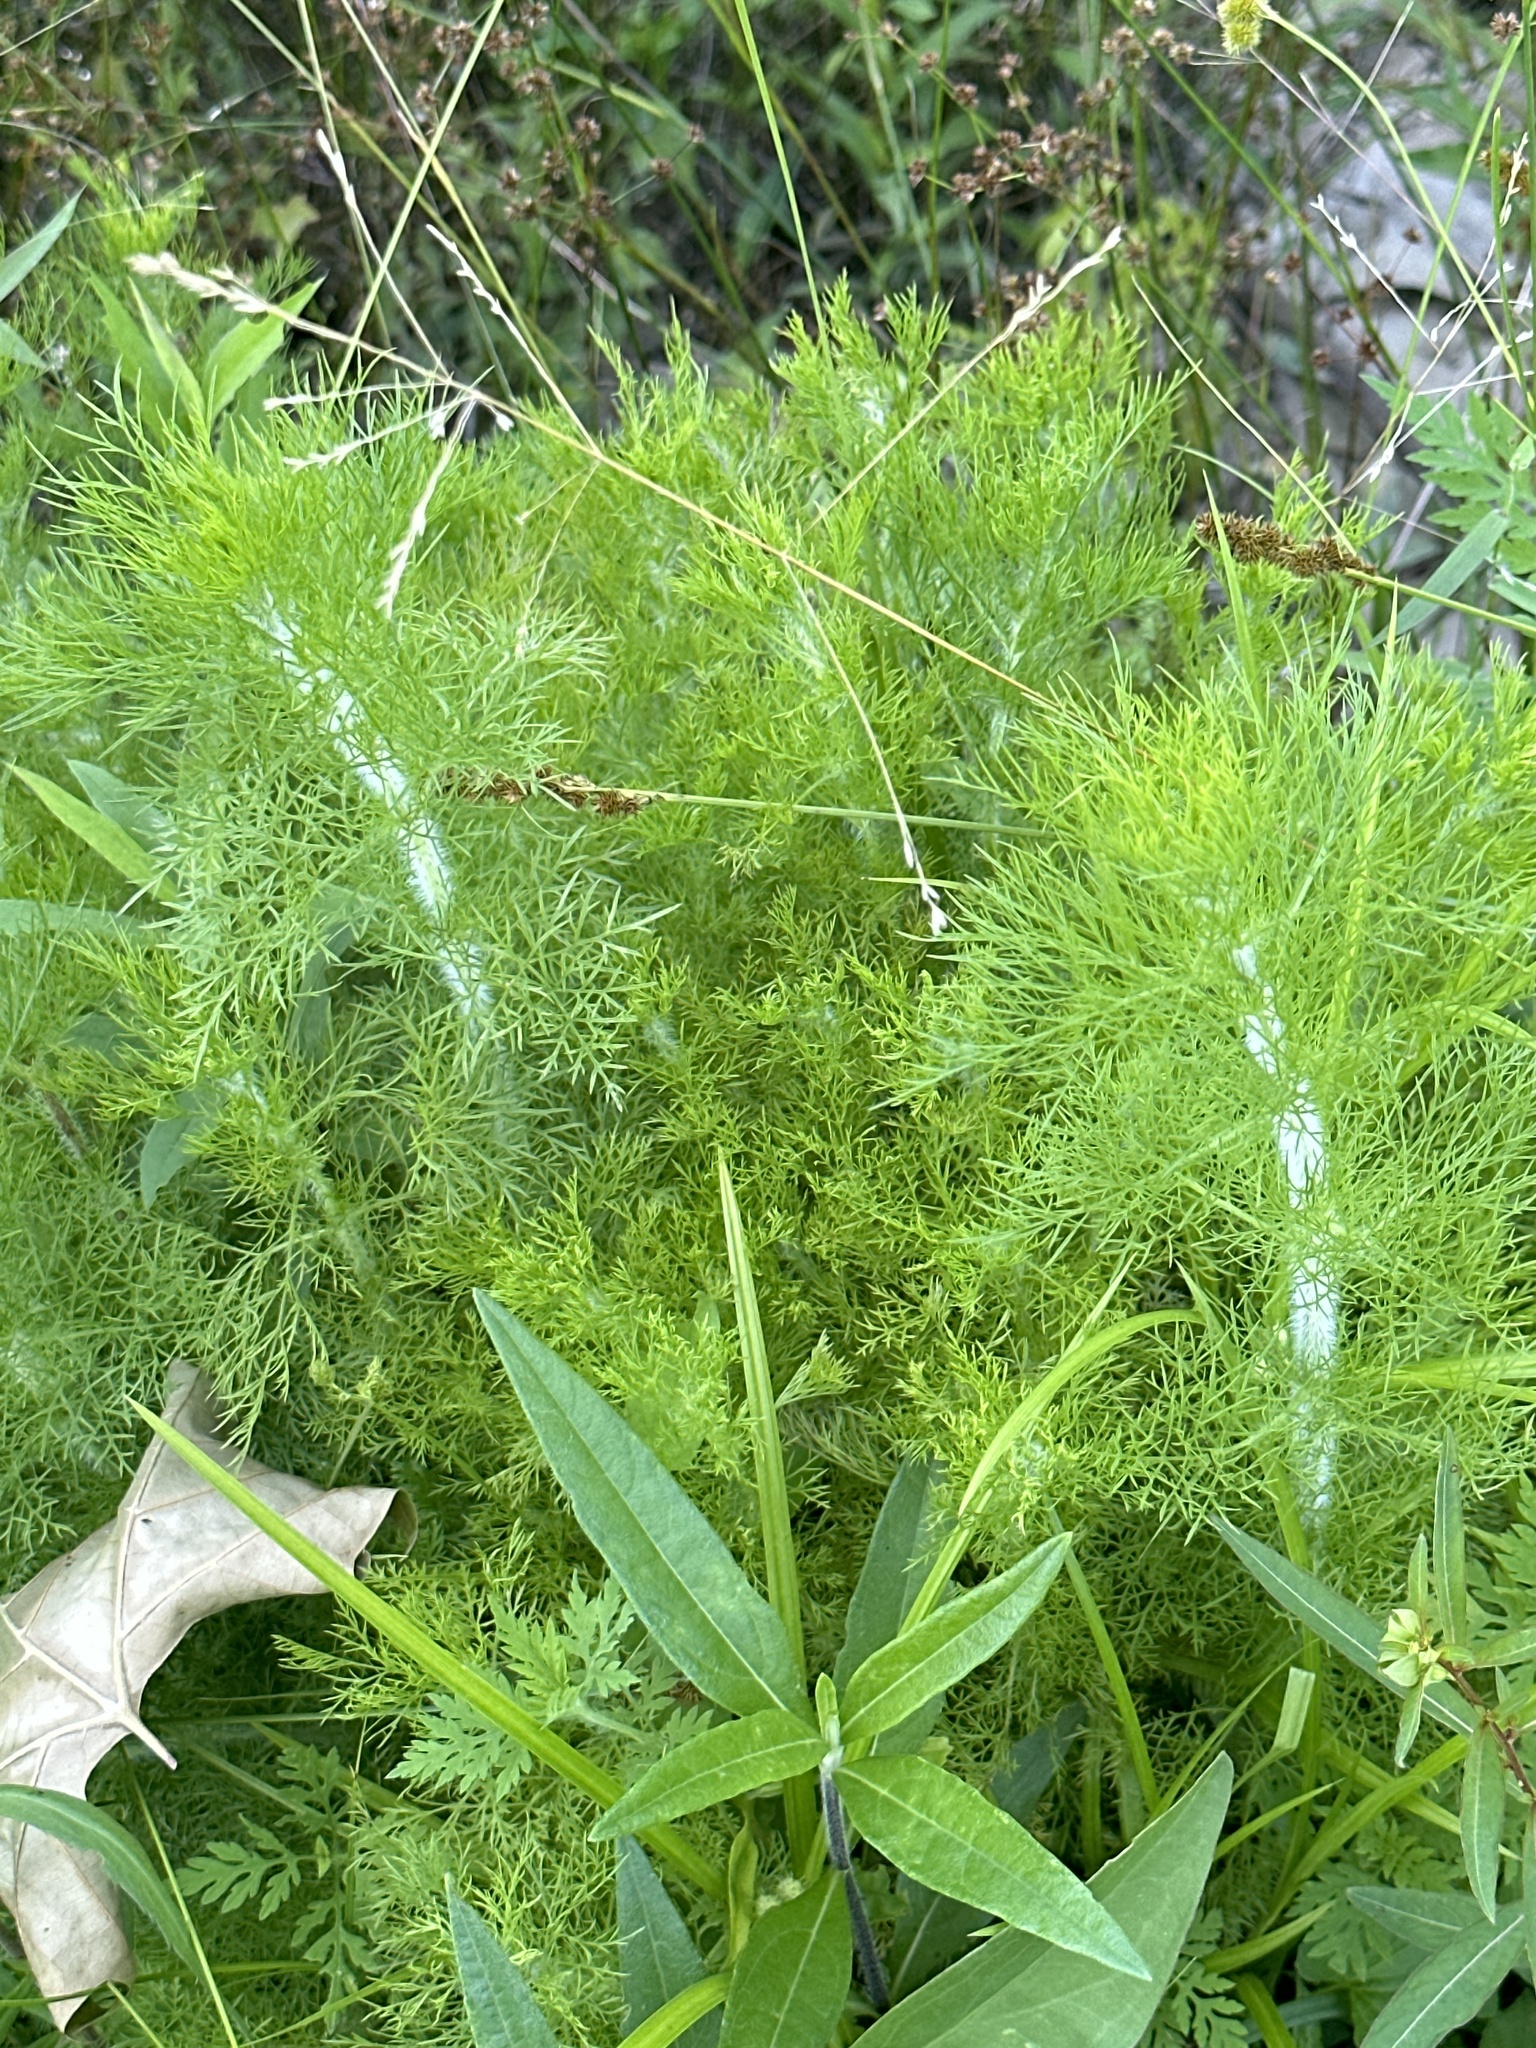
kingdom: Plantae
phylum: Tracheophyta
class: Magnoliopsida
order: Asterales
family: Asteraceae
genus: Eupatorium
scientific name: Eupatorium capillifolium
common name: Dog-fennel
